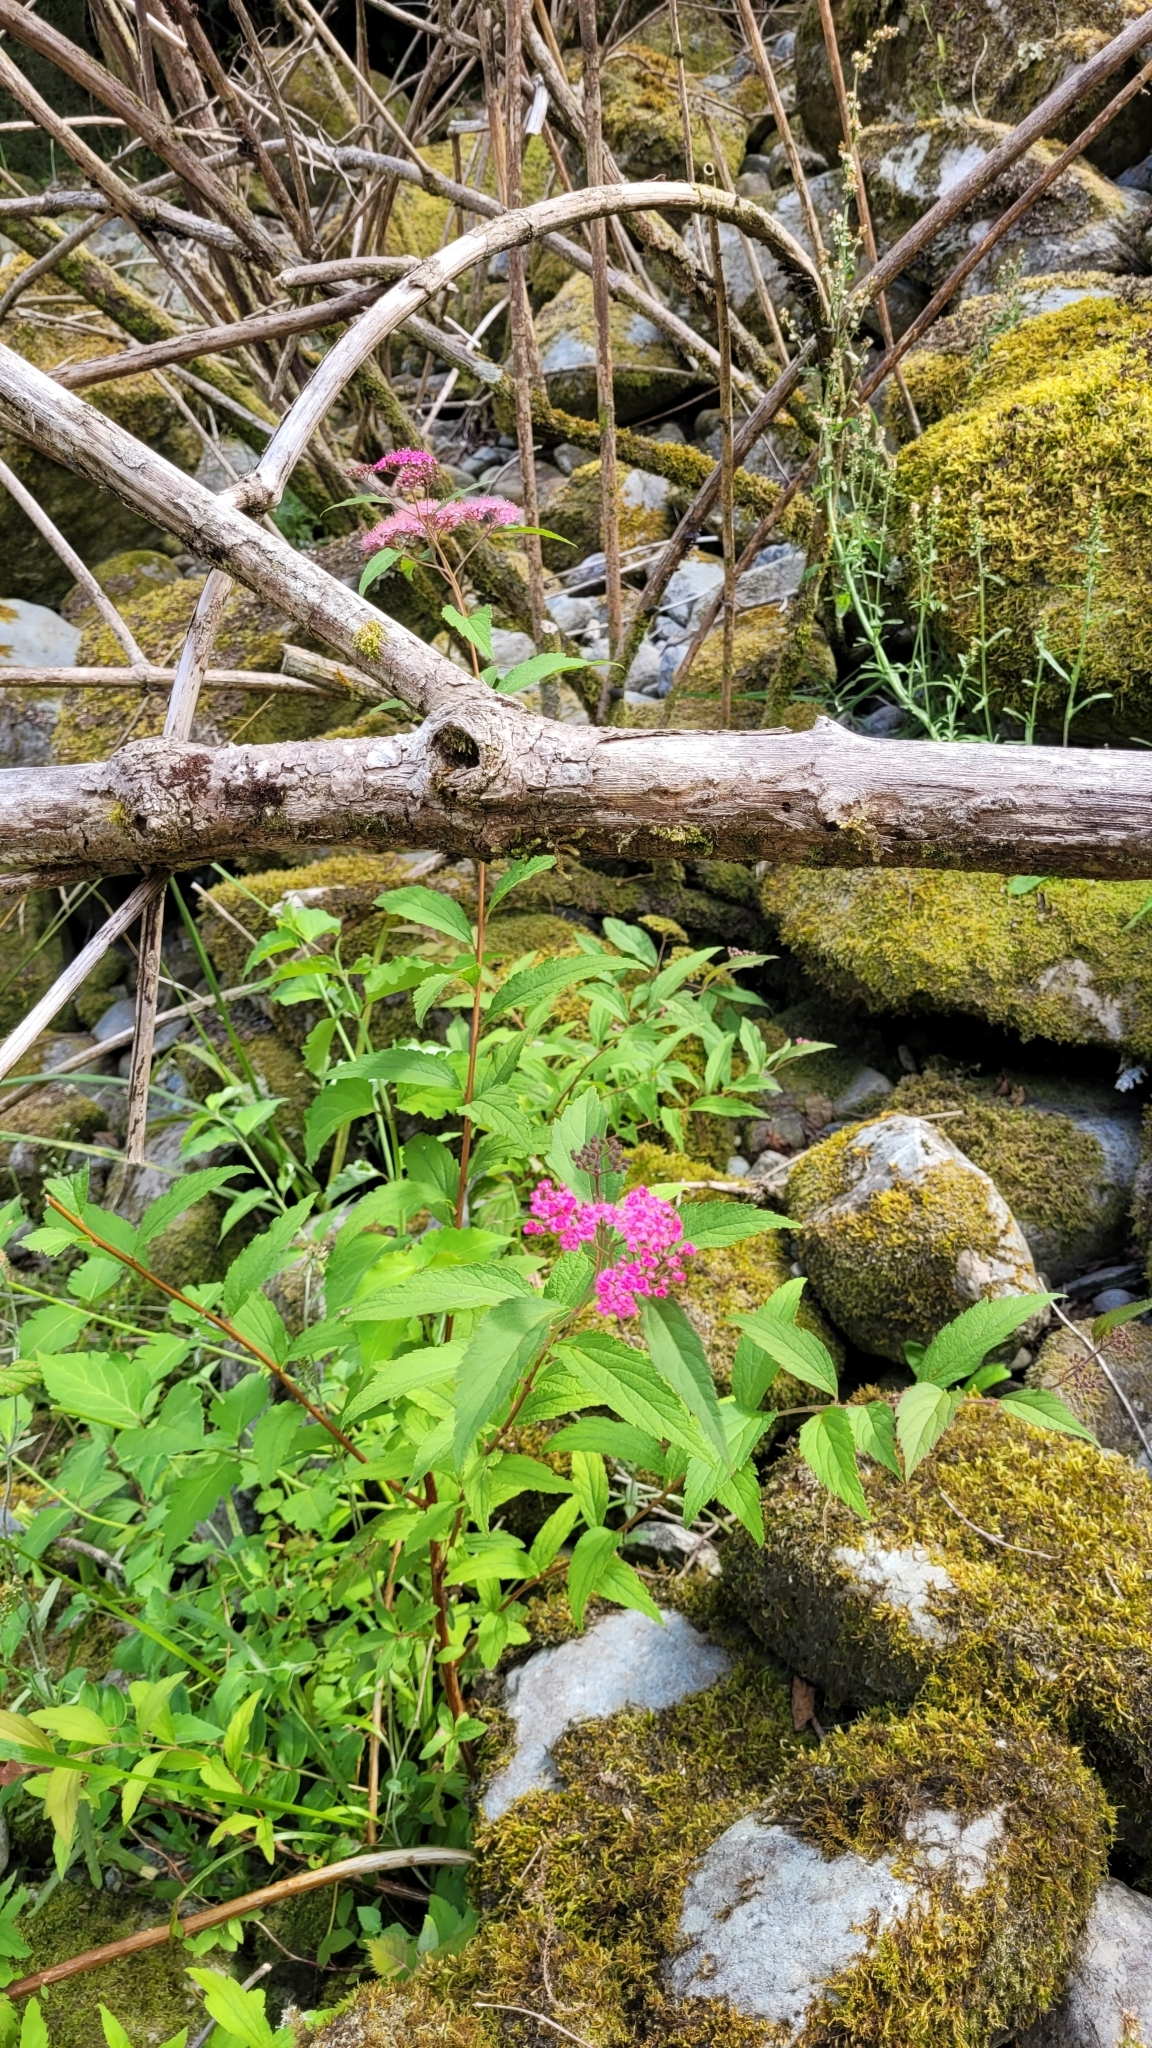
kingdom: Plantae
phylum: Tracheophyta
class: Magnoliopsida
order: Rosales
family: Rosaceae
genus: Spiraea
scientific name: Spiraea japonica
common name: Japanese spiraea
